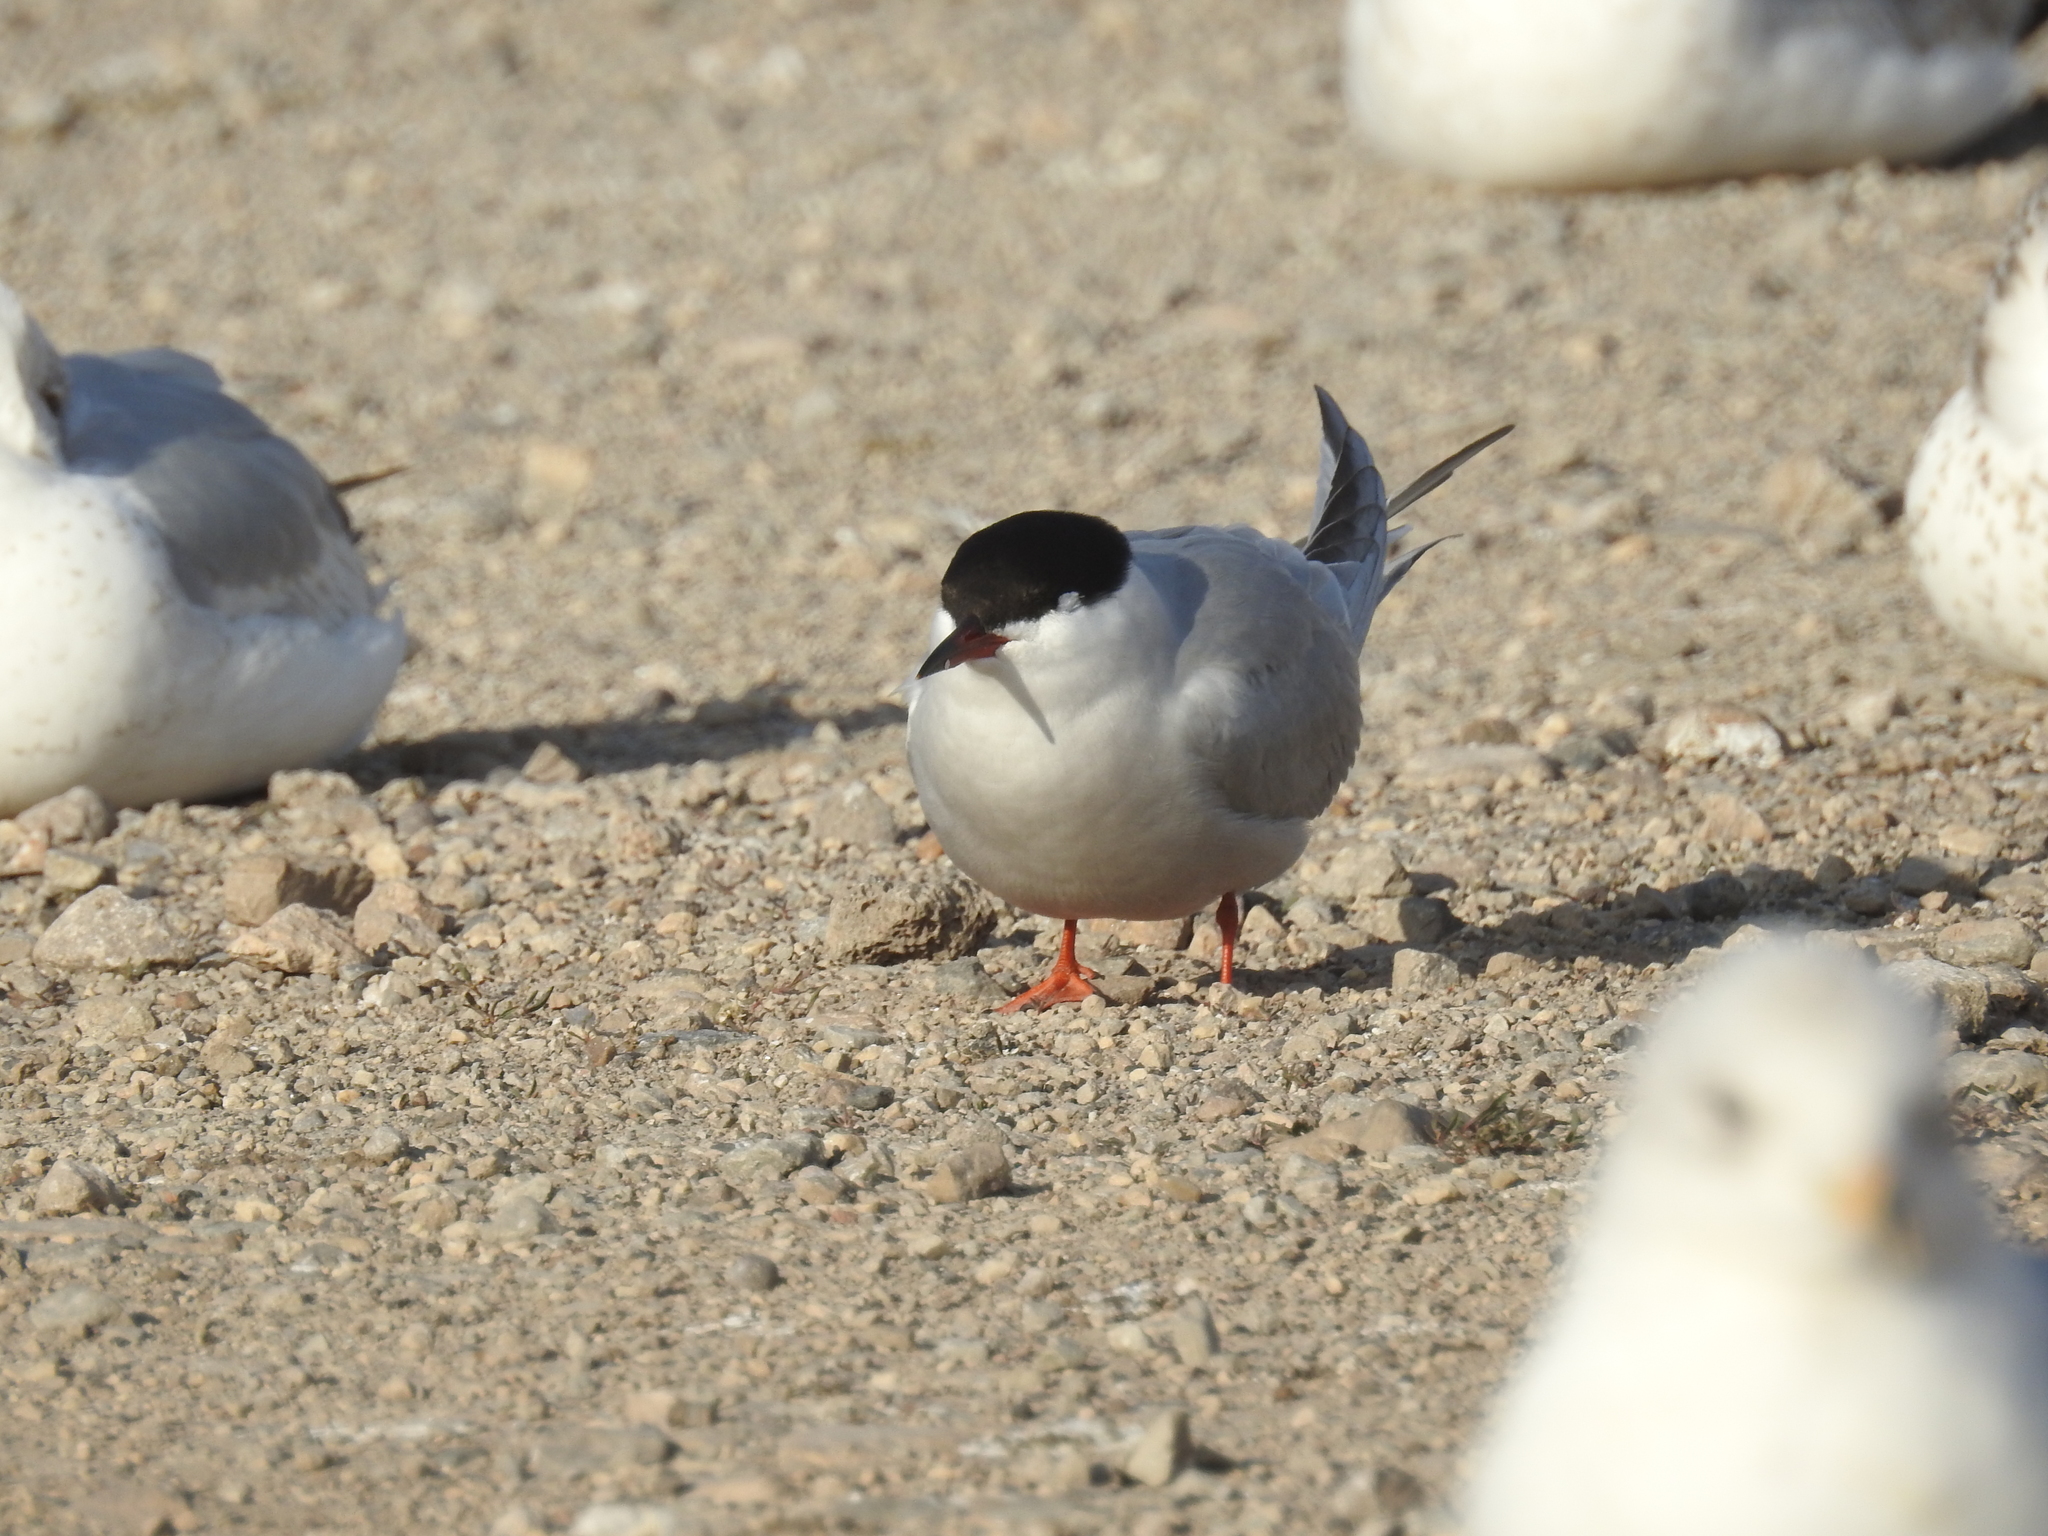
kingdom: Animalia
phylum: Chordata
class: Aves
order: Charadriiformes
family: Laridae
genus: Sterna
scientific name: Sterna hirundo
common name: Common tern
